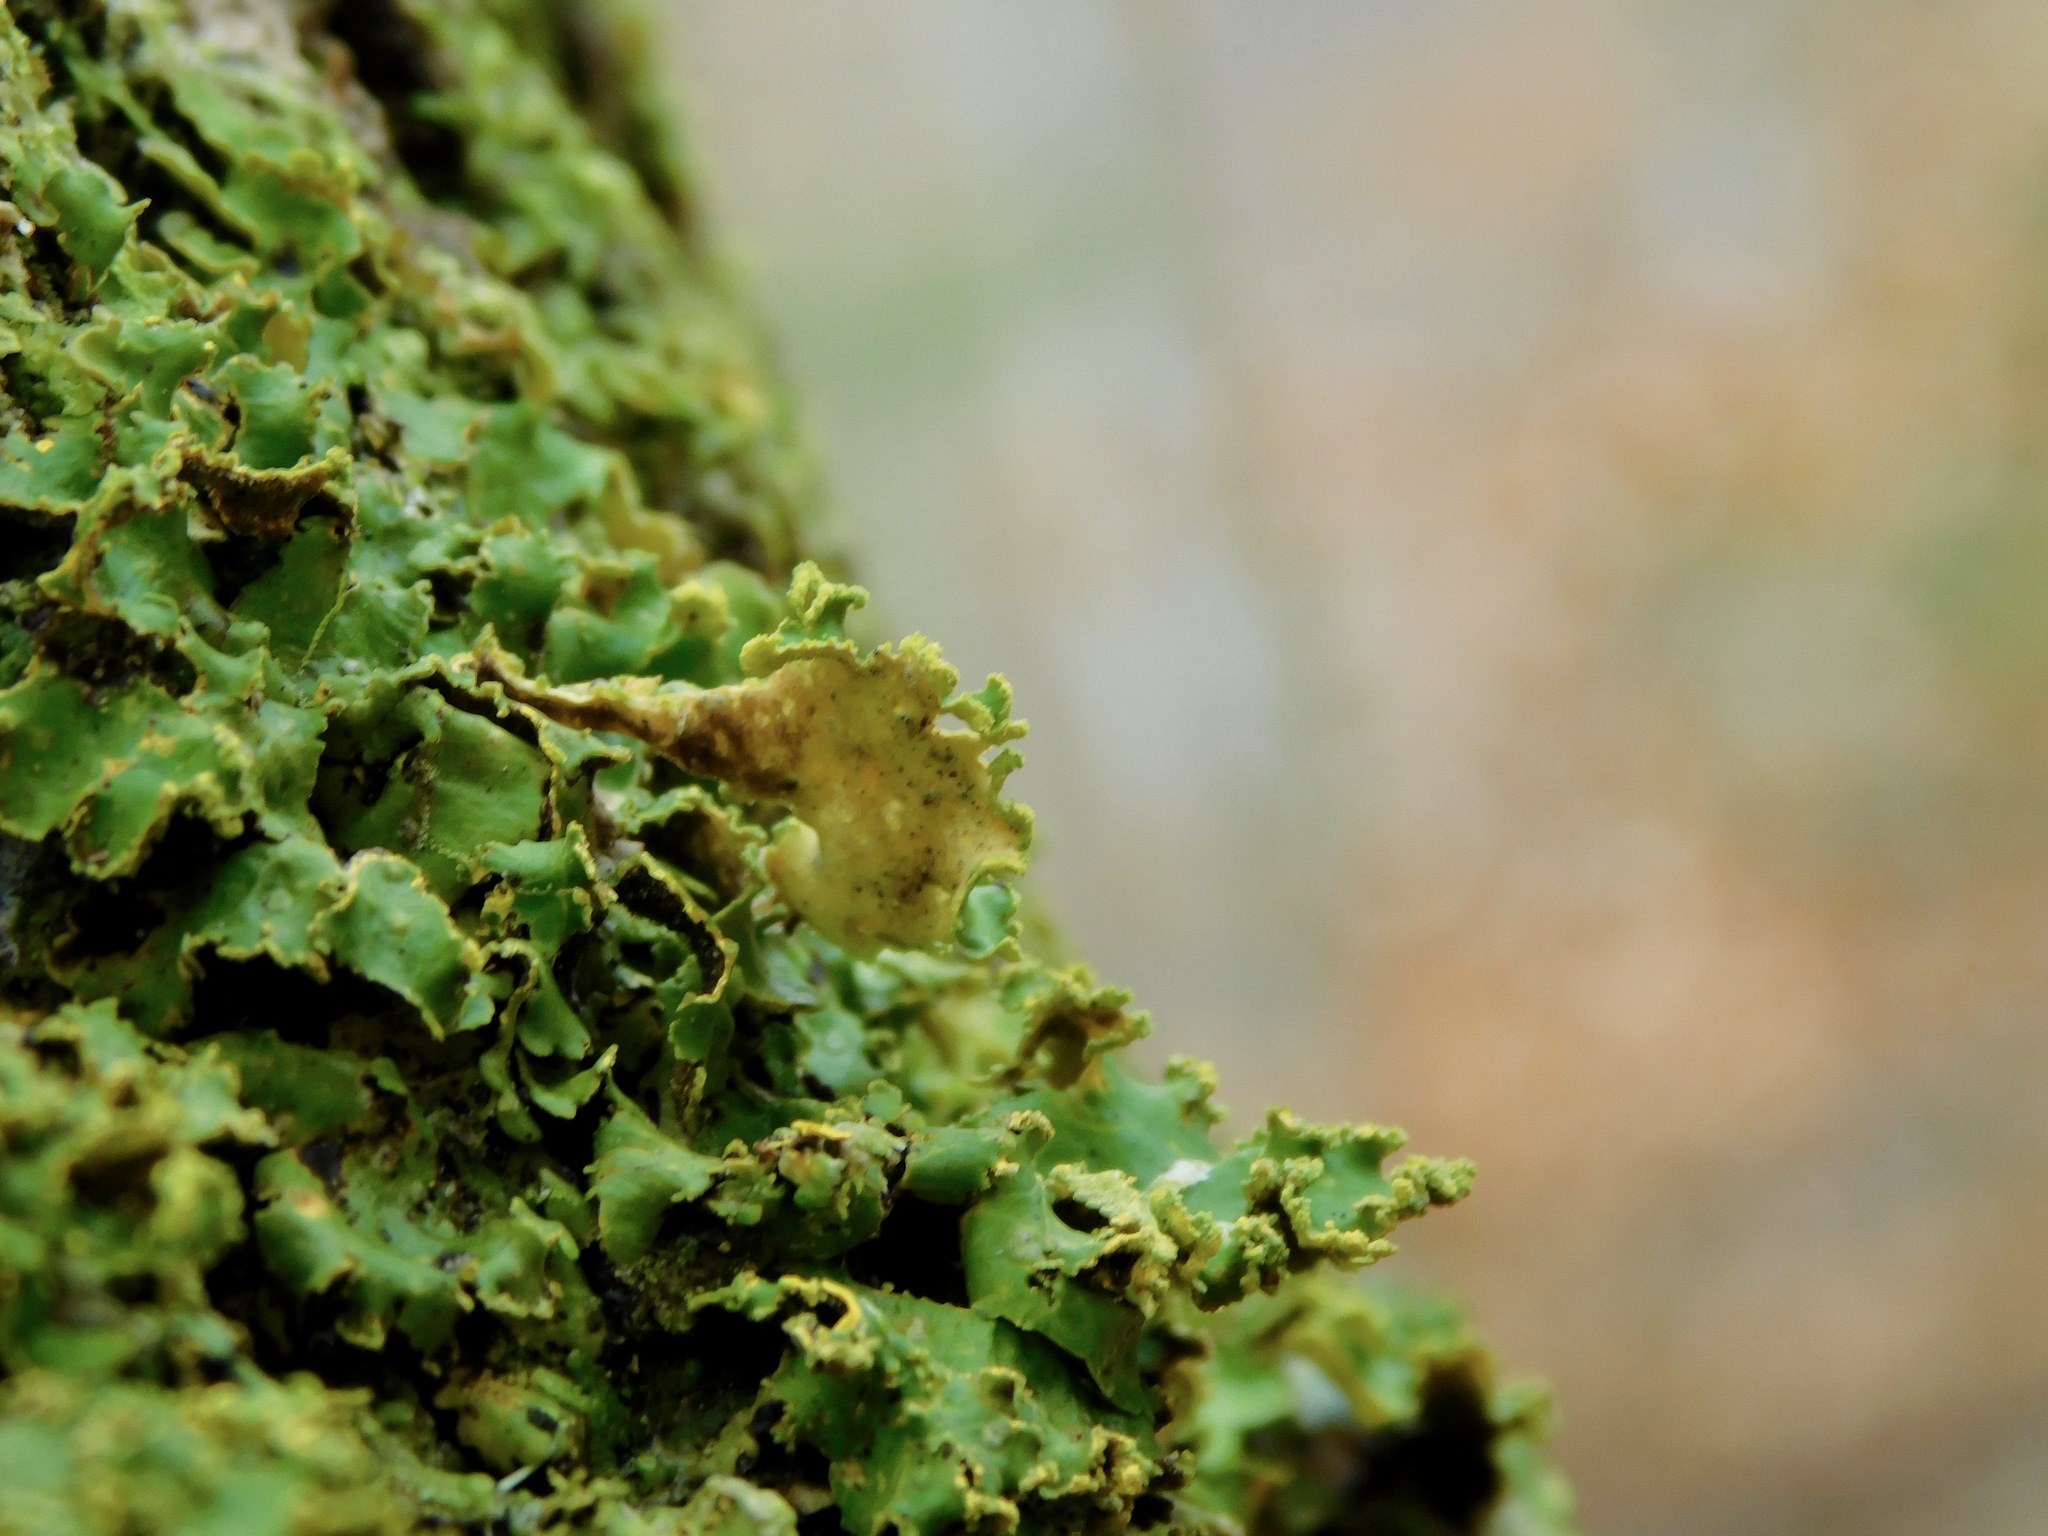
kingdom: Fungi
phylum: Ascomycota
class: Lecanoromycetes
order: Peltigerales
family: Lobariaceae
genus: Pseudocyphellaria
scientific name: Pseudocyphellaria aurata
